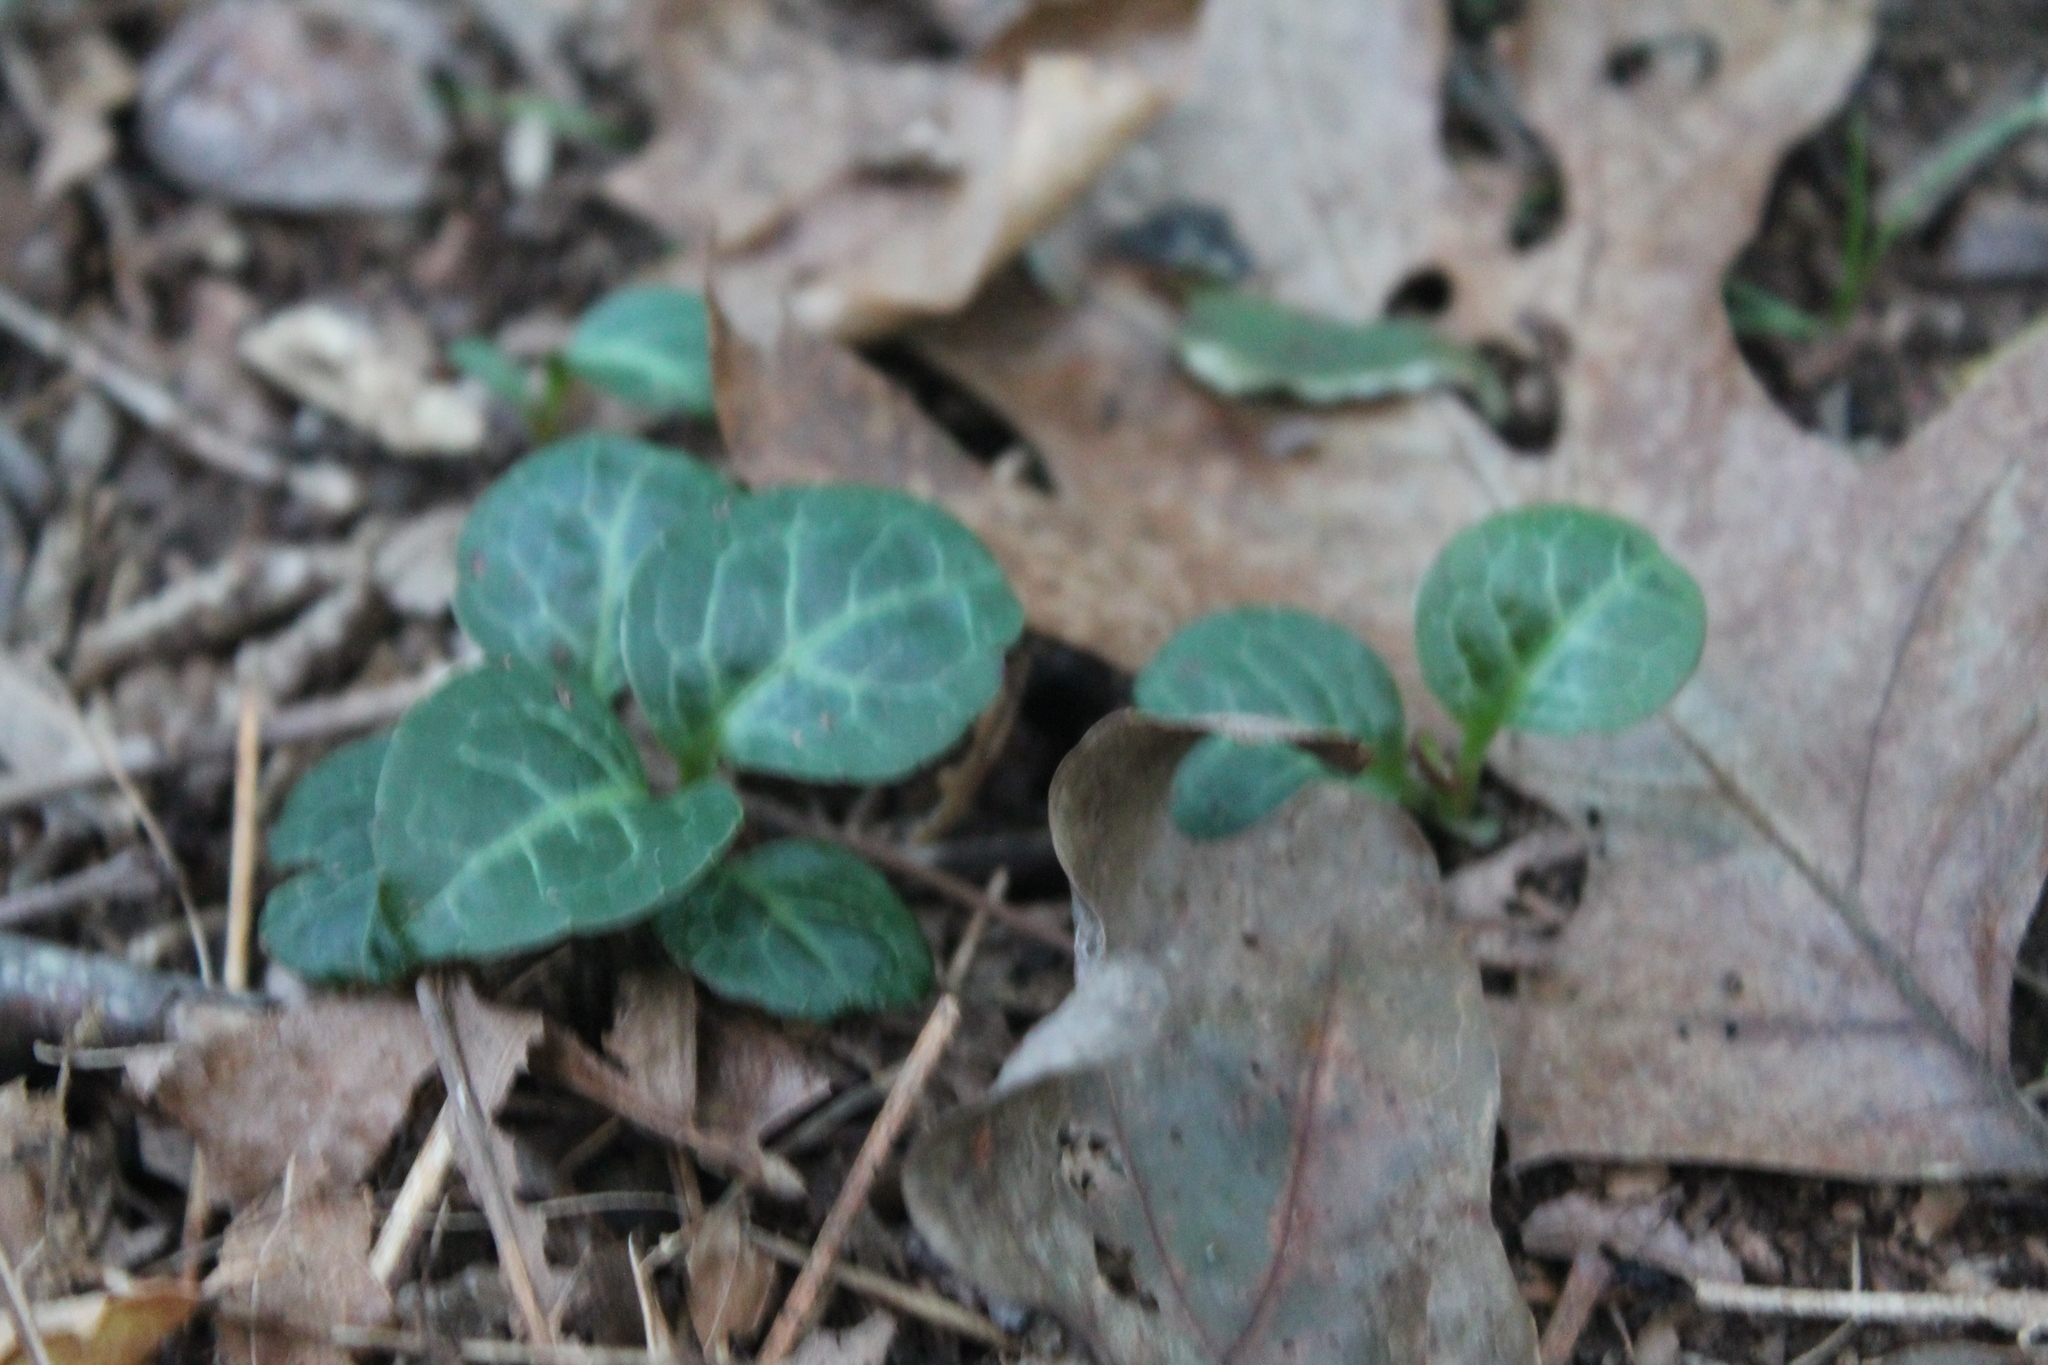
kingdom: Plantae
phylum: Tracheophyta
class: Magnoliopsida
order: Ericales
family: Ericaceae
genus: Pyrola
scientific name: Pyrola americana
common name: American wintergreen
